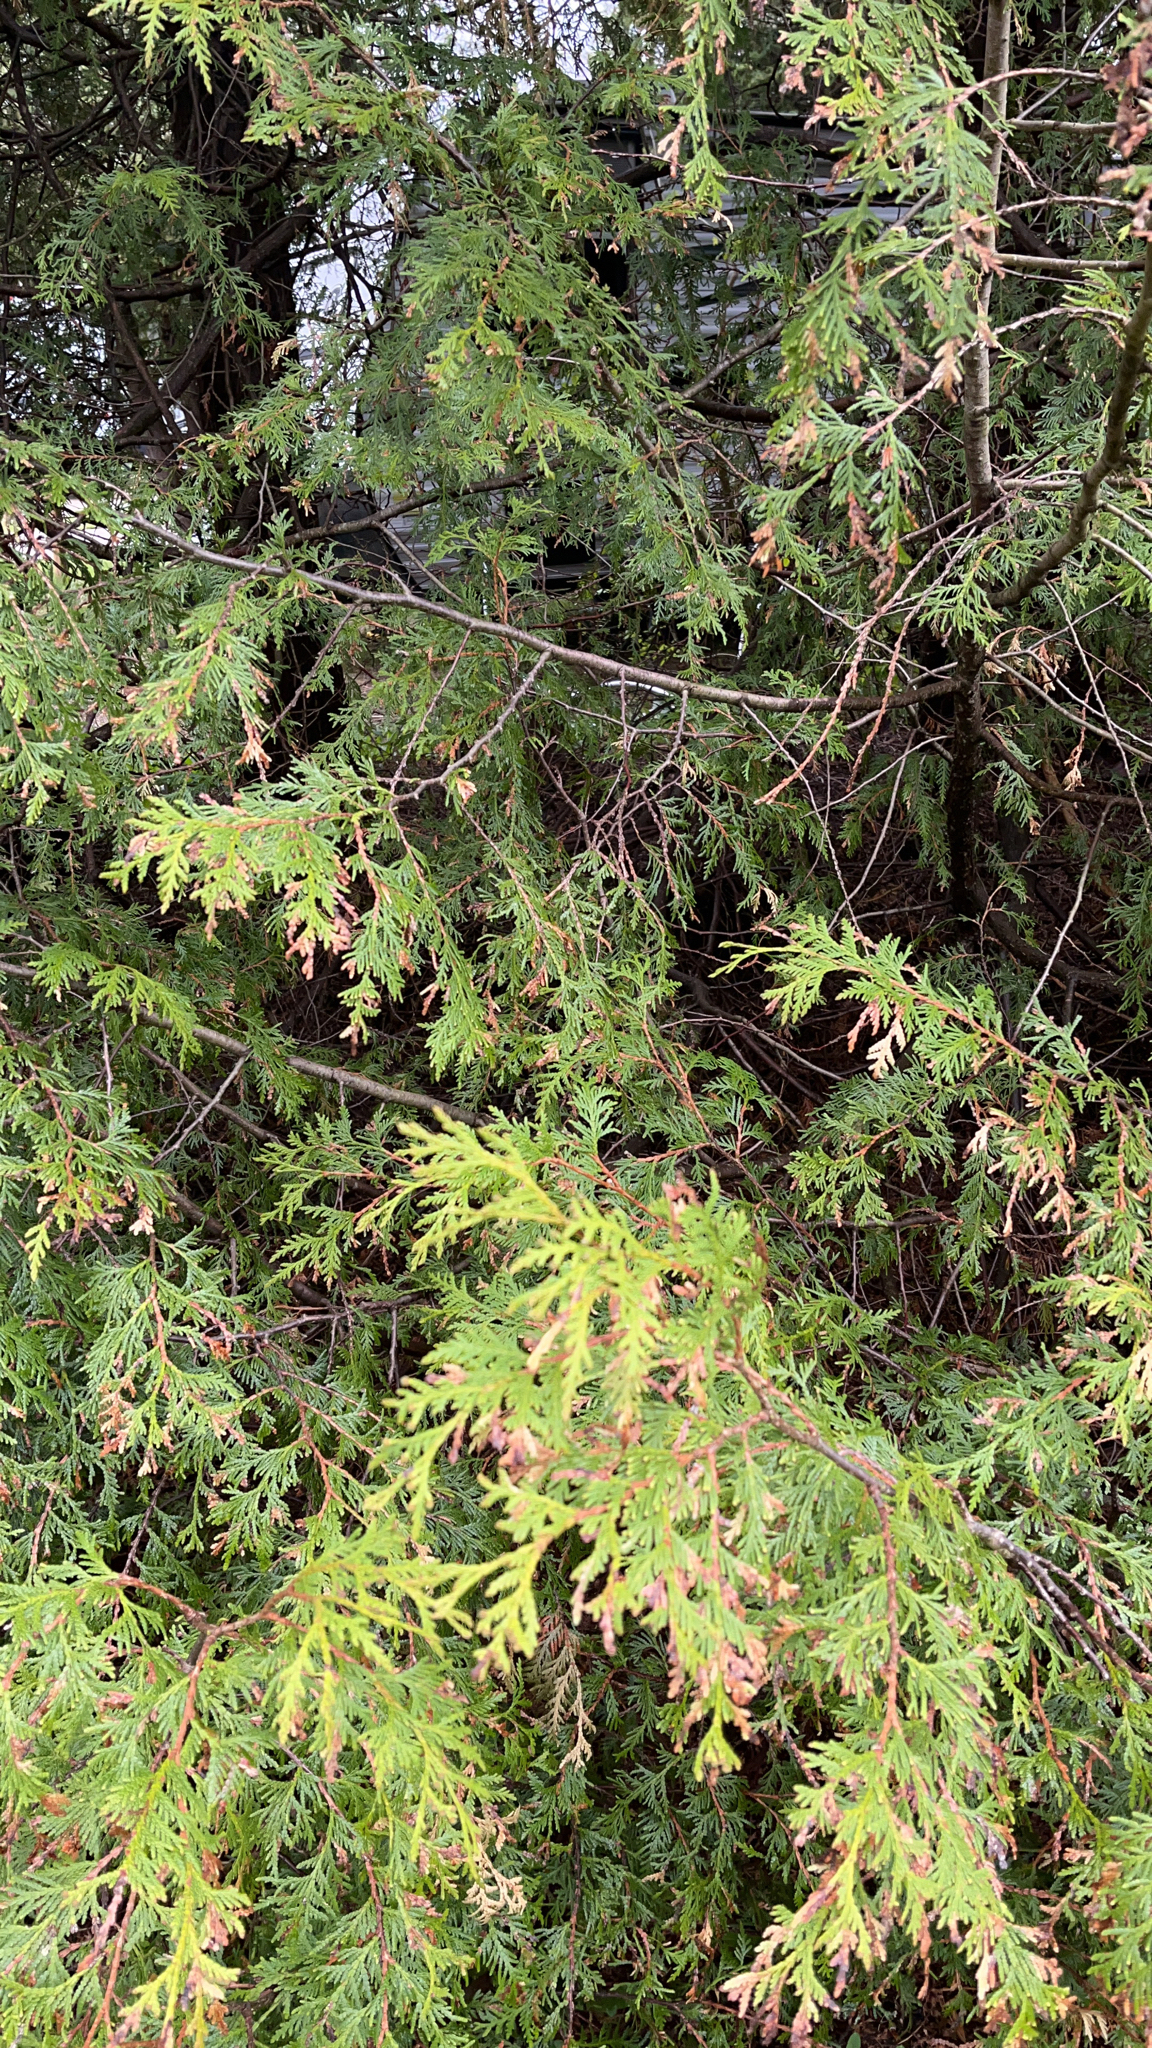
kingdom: Plantae
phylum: Tracheophyta
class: Pinopsida
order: Pinales
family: Cupressaceae
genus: Thuja
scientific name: Thuja occidentalis
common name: Northern white-cedar
